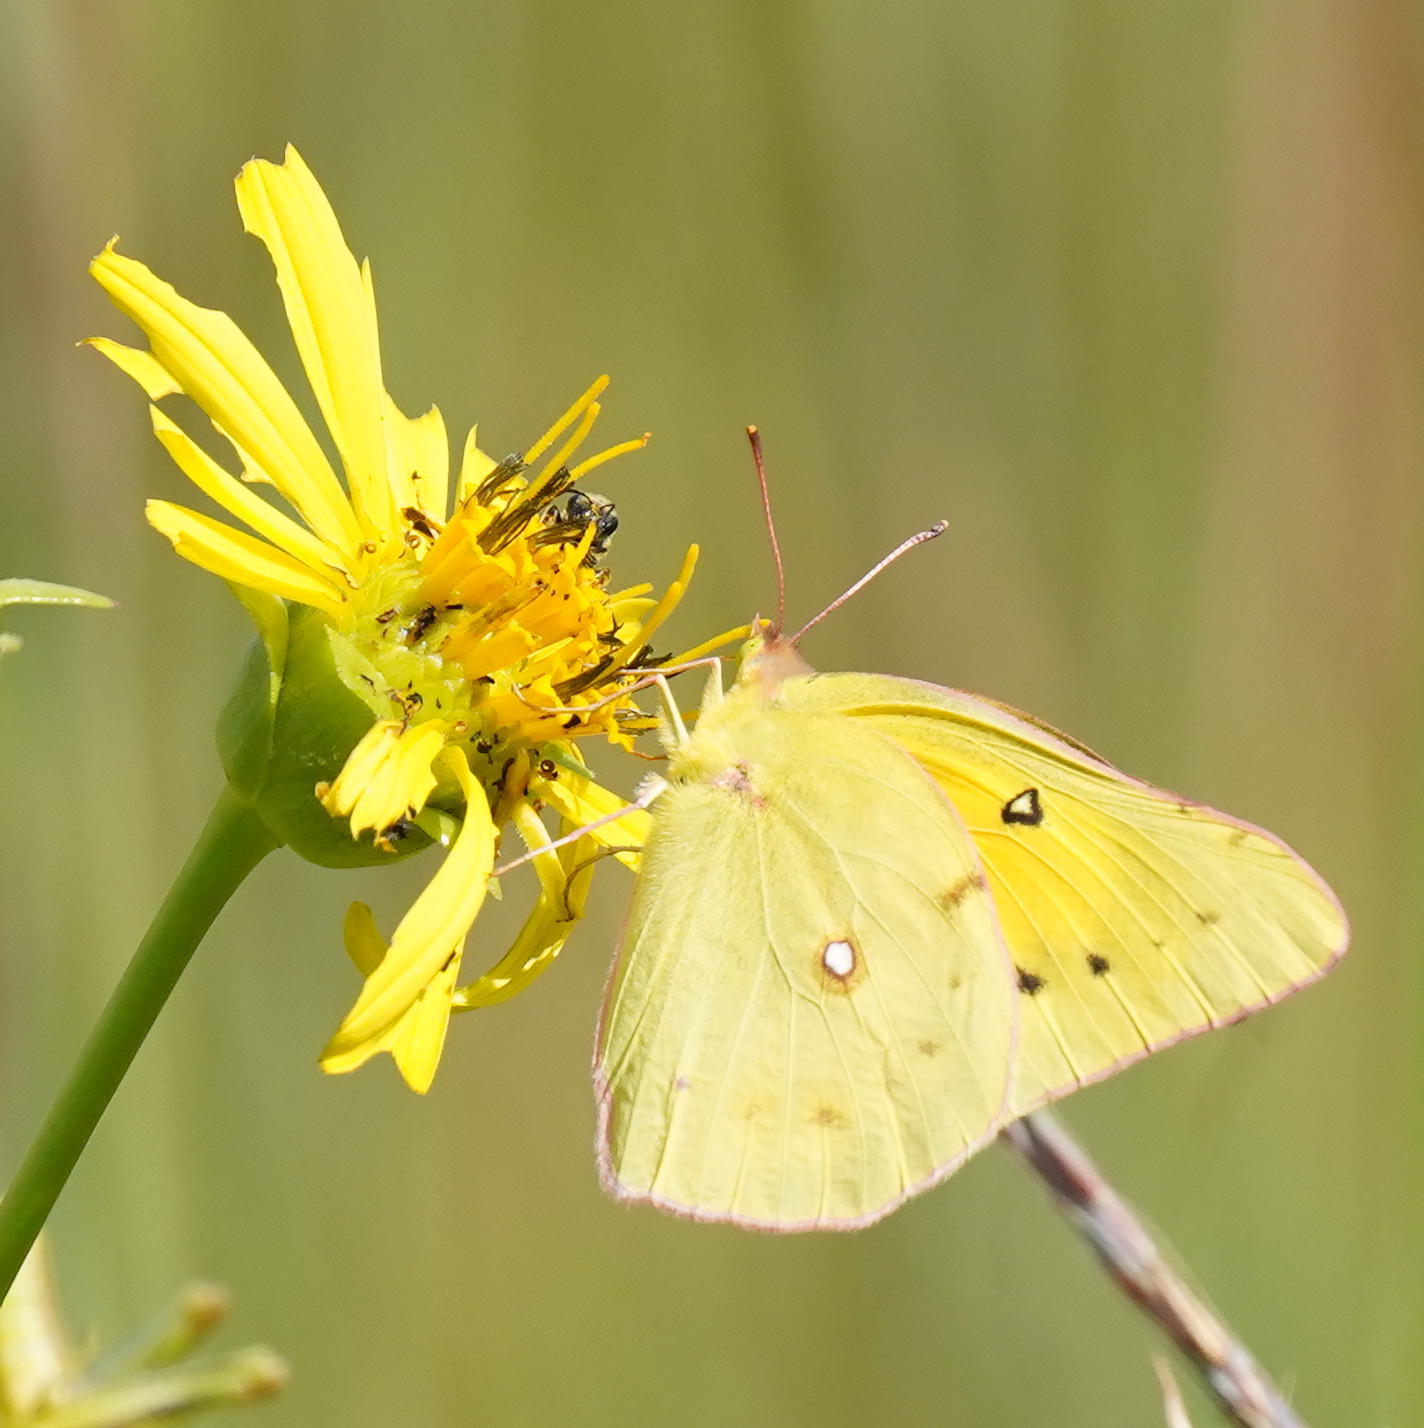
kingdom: Animalia
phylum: Arthropoda
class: Insecta
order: Lepidoptera
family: Pieridae
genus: Colias
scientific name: Colias eurytheme
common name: Alfalfa butterfly
